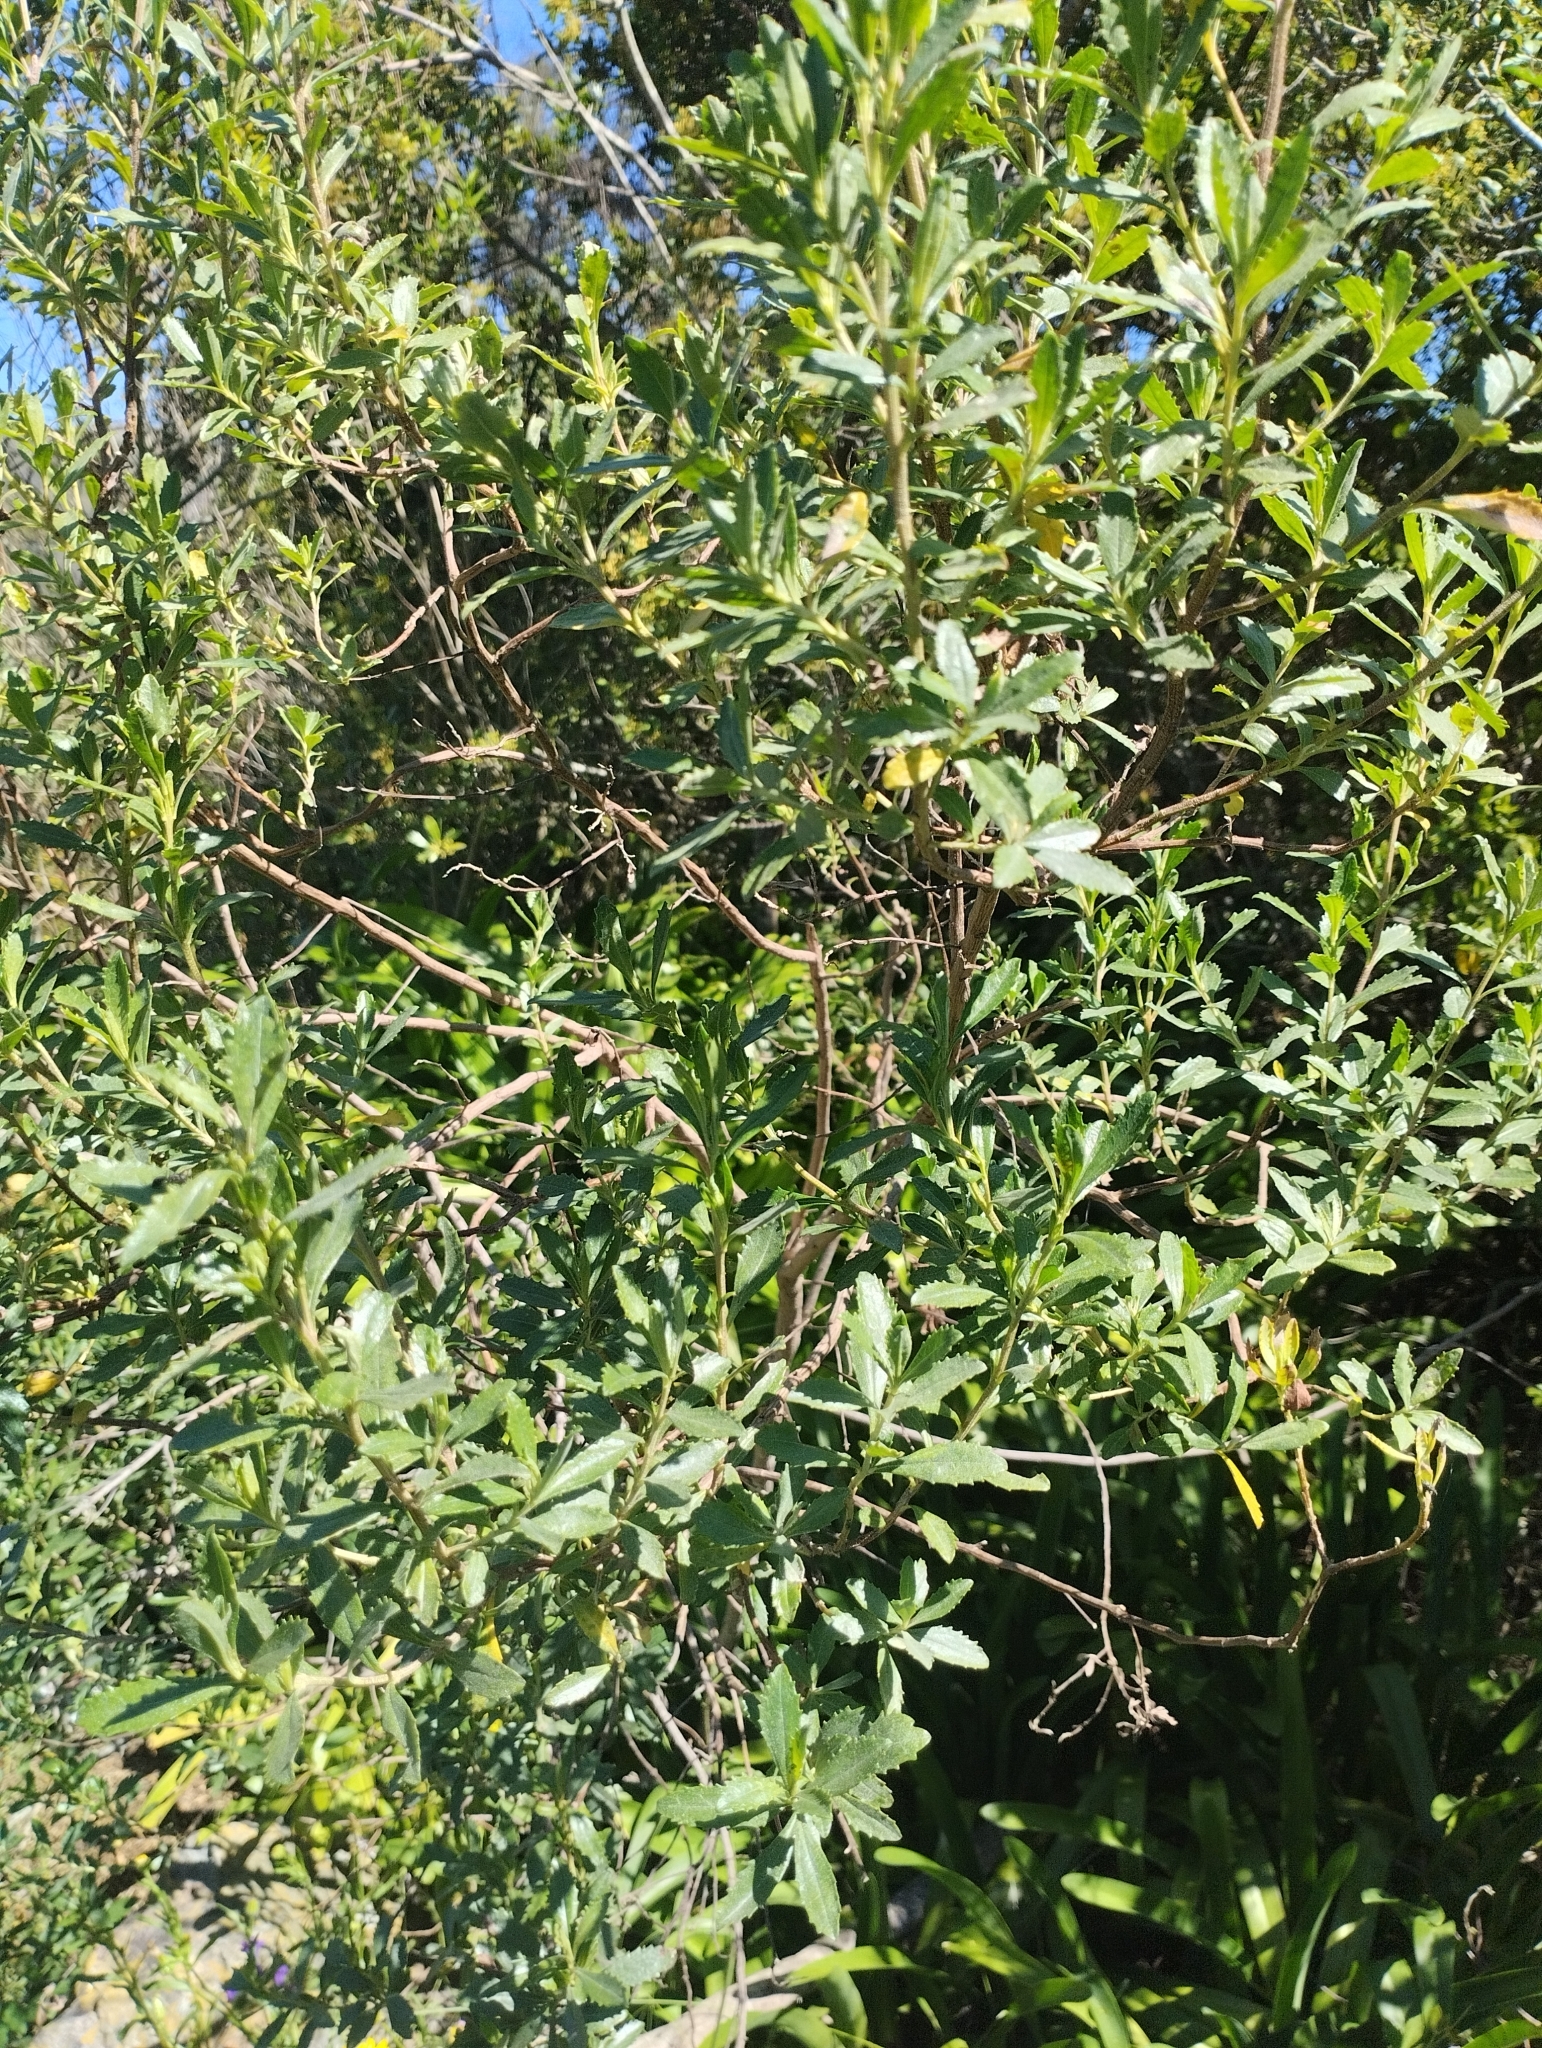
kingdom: Plantae
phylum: Tracheophyta
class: Magnoliopsida
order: Asterales
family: Asteraceae
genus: Baccharis
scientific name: Baccharis microdonta
